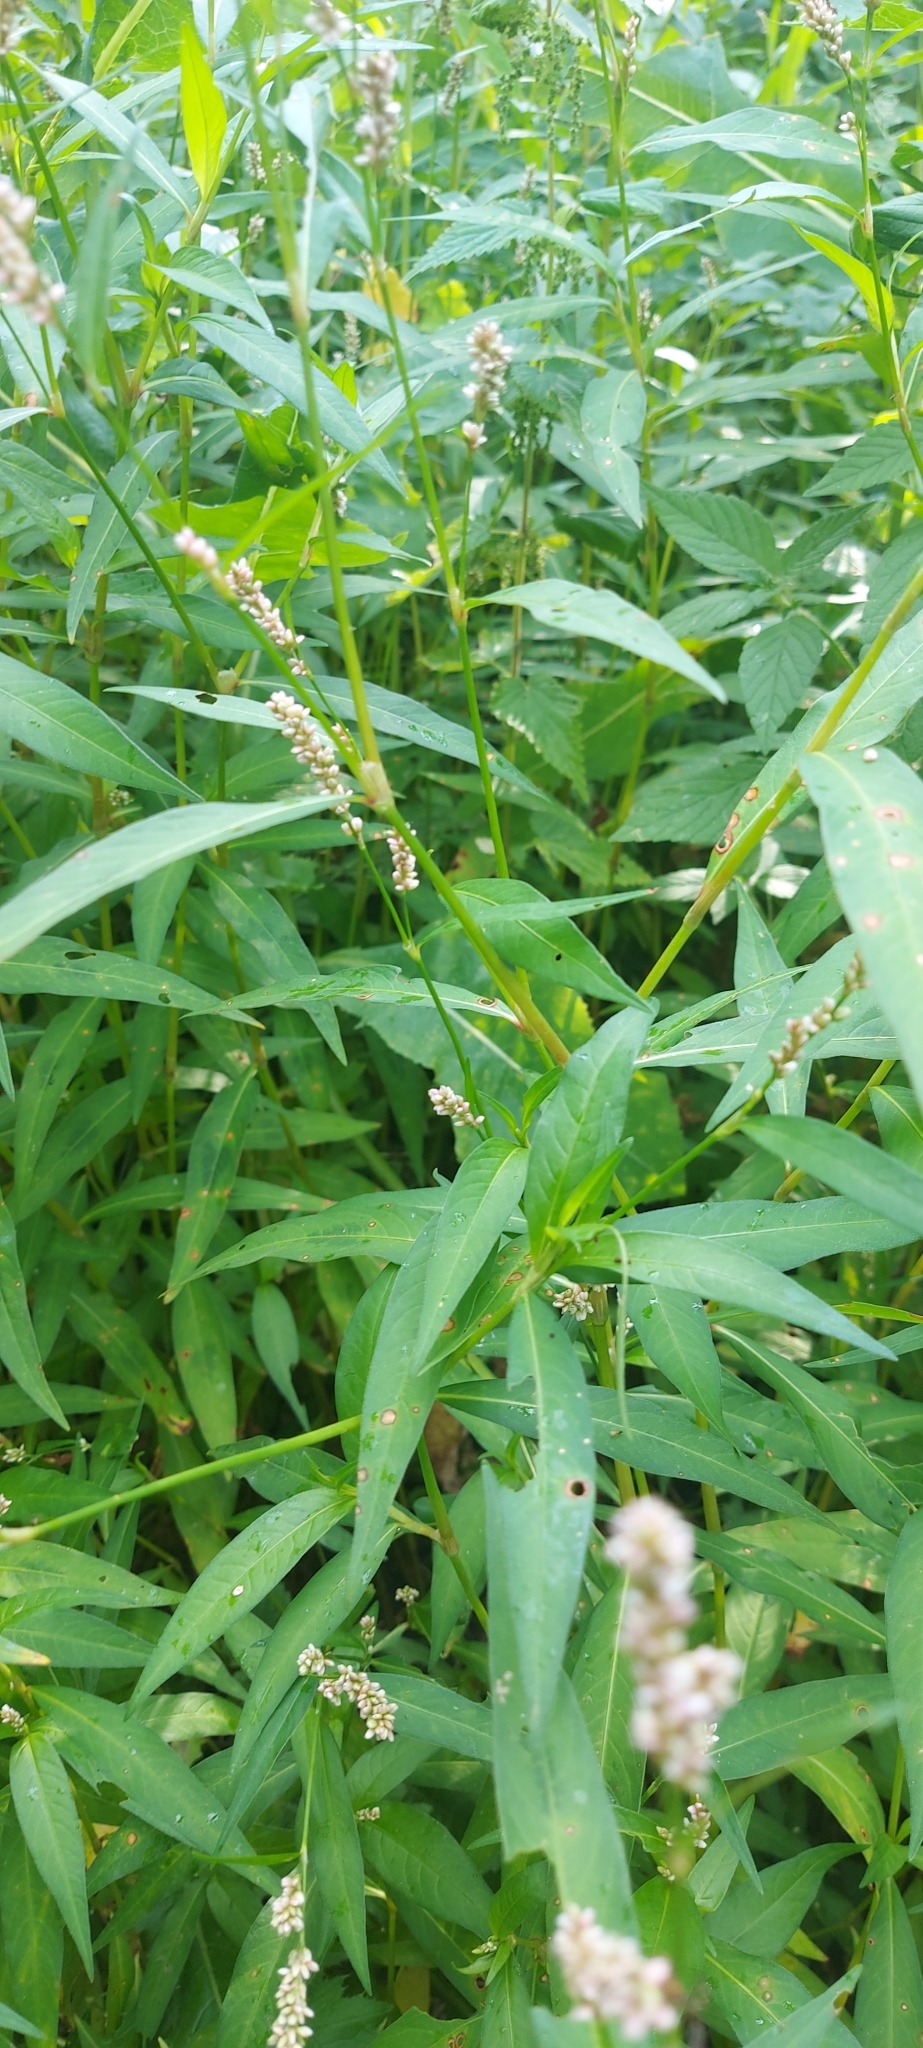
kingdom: Plantae
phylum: Tracheophyta
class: Magnoliopsida
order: Caryophyllales
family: Polygonaceae
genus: Persicaria
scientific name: Persicaria lapathifolia
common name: Curlytop knotweed
